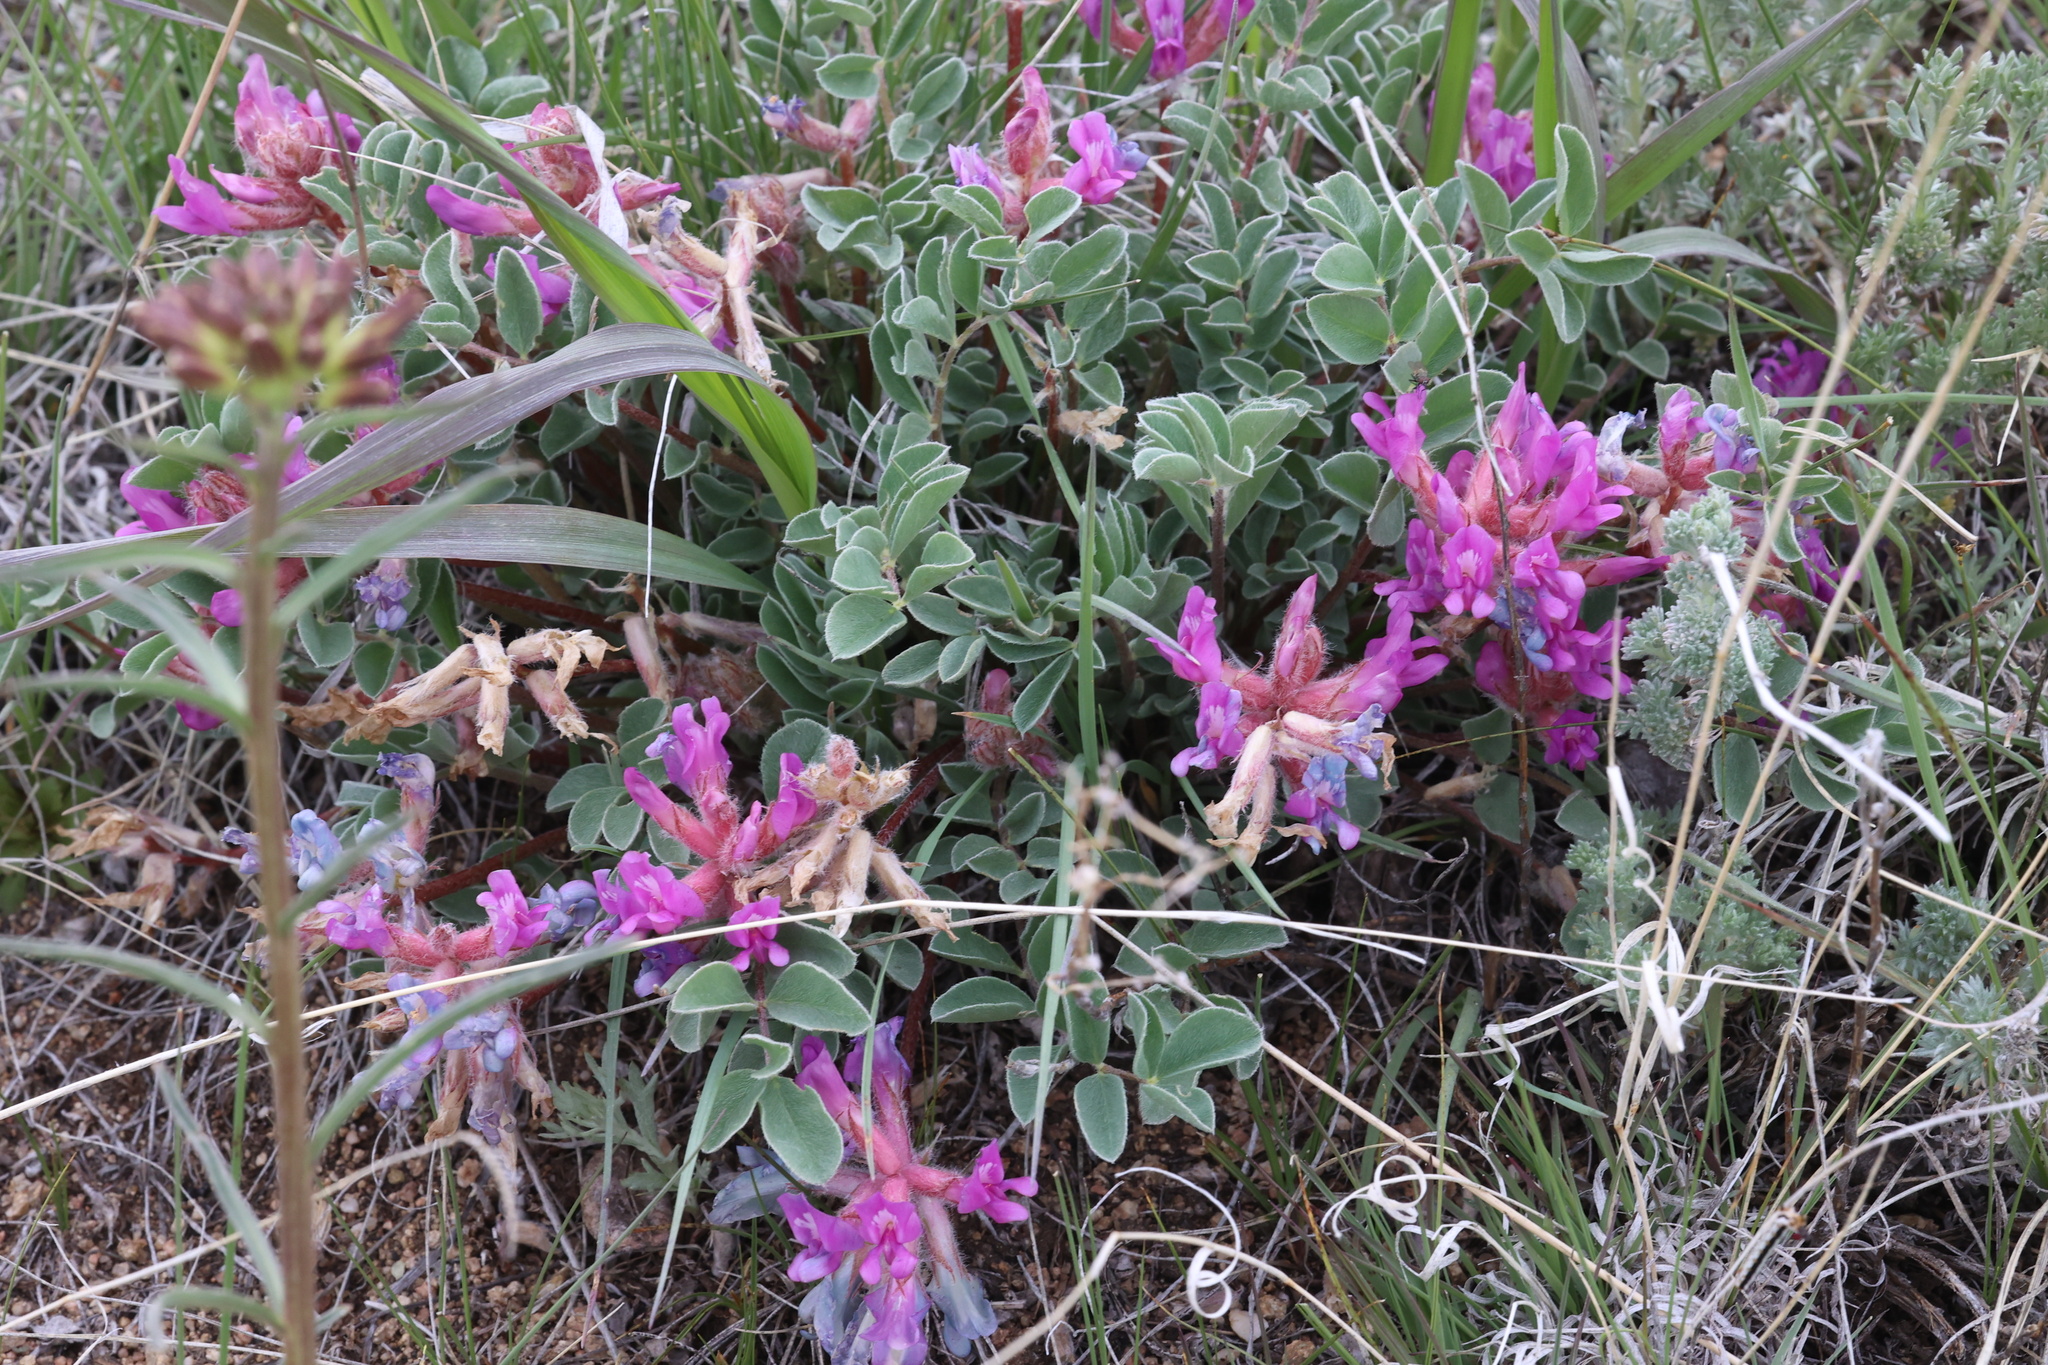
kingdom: Plantae
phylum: Tracheophyta
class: Magnoliopsida
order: Fabales
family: Fabaceae
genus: Astragalus
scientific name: Astragalus shortianus
